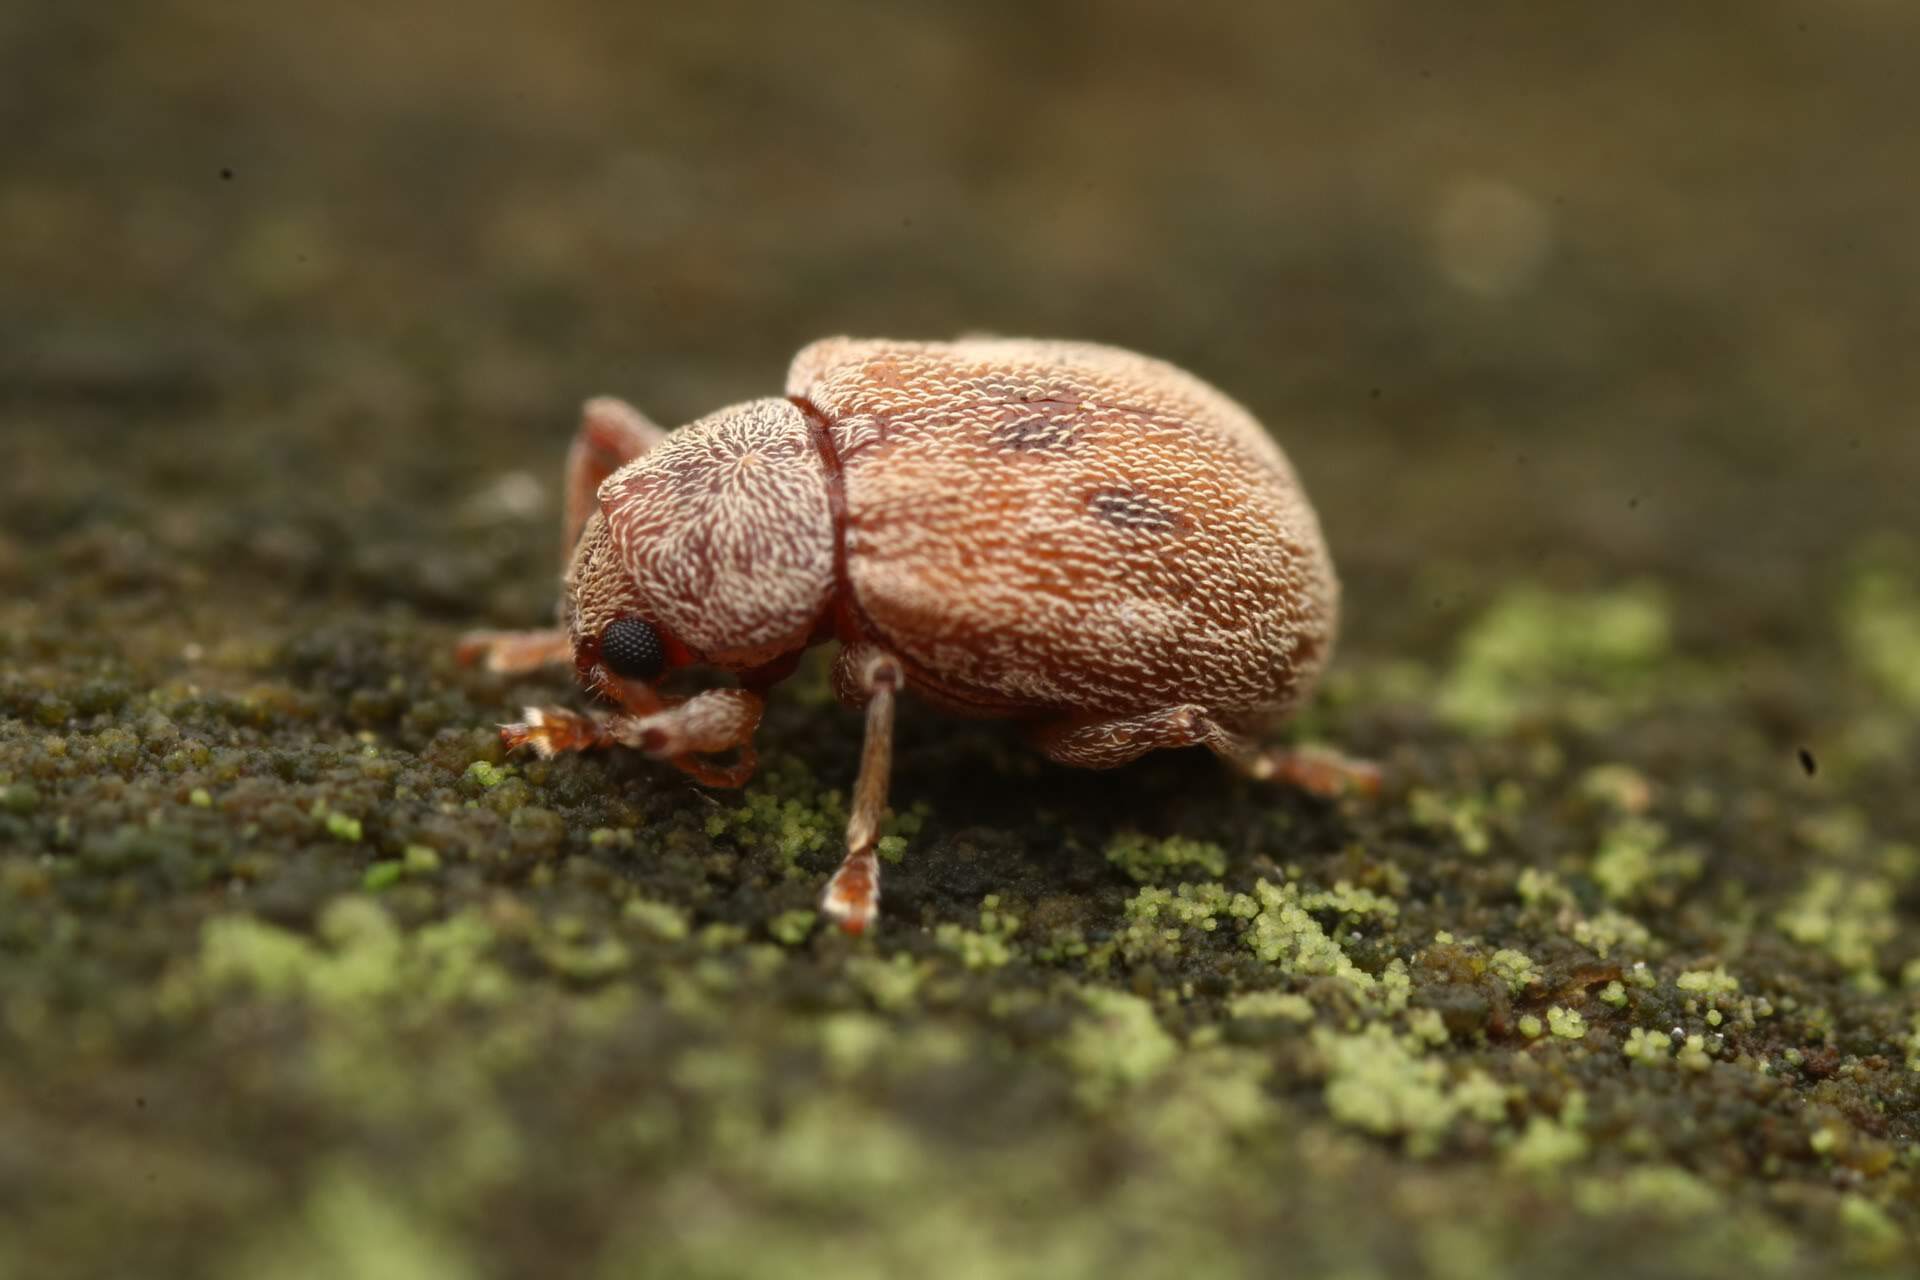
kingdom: Animalia
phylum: Arthropoda
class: Insecta
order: Coleoptera
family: Chrysomelidae
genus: Demotina
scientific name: Demotina modesta
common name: Leaf beetle
